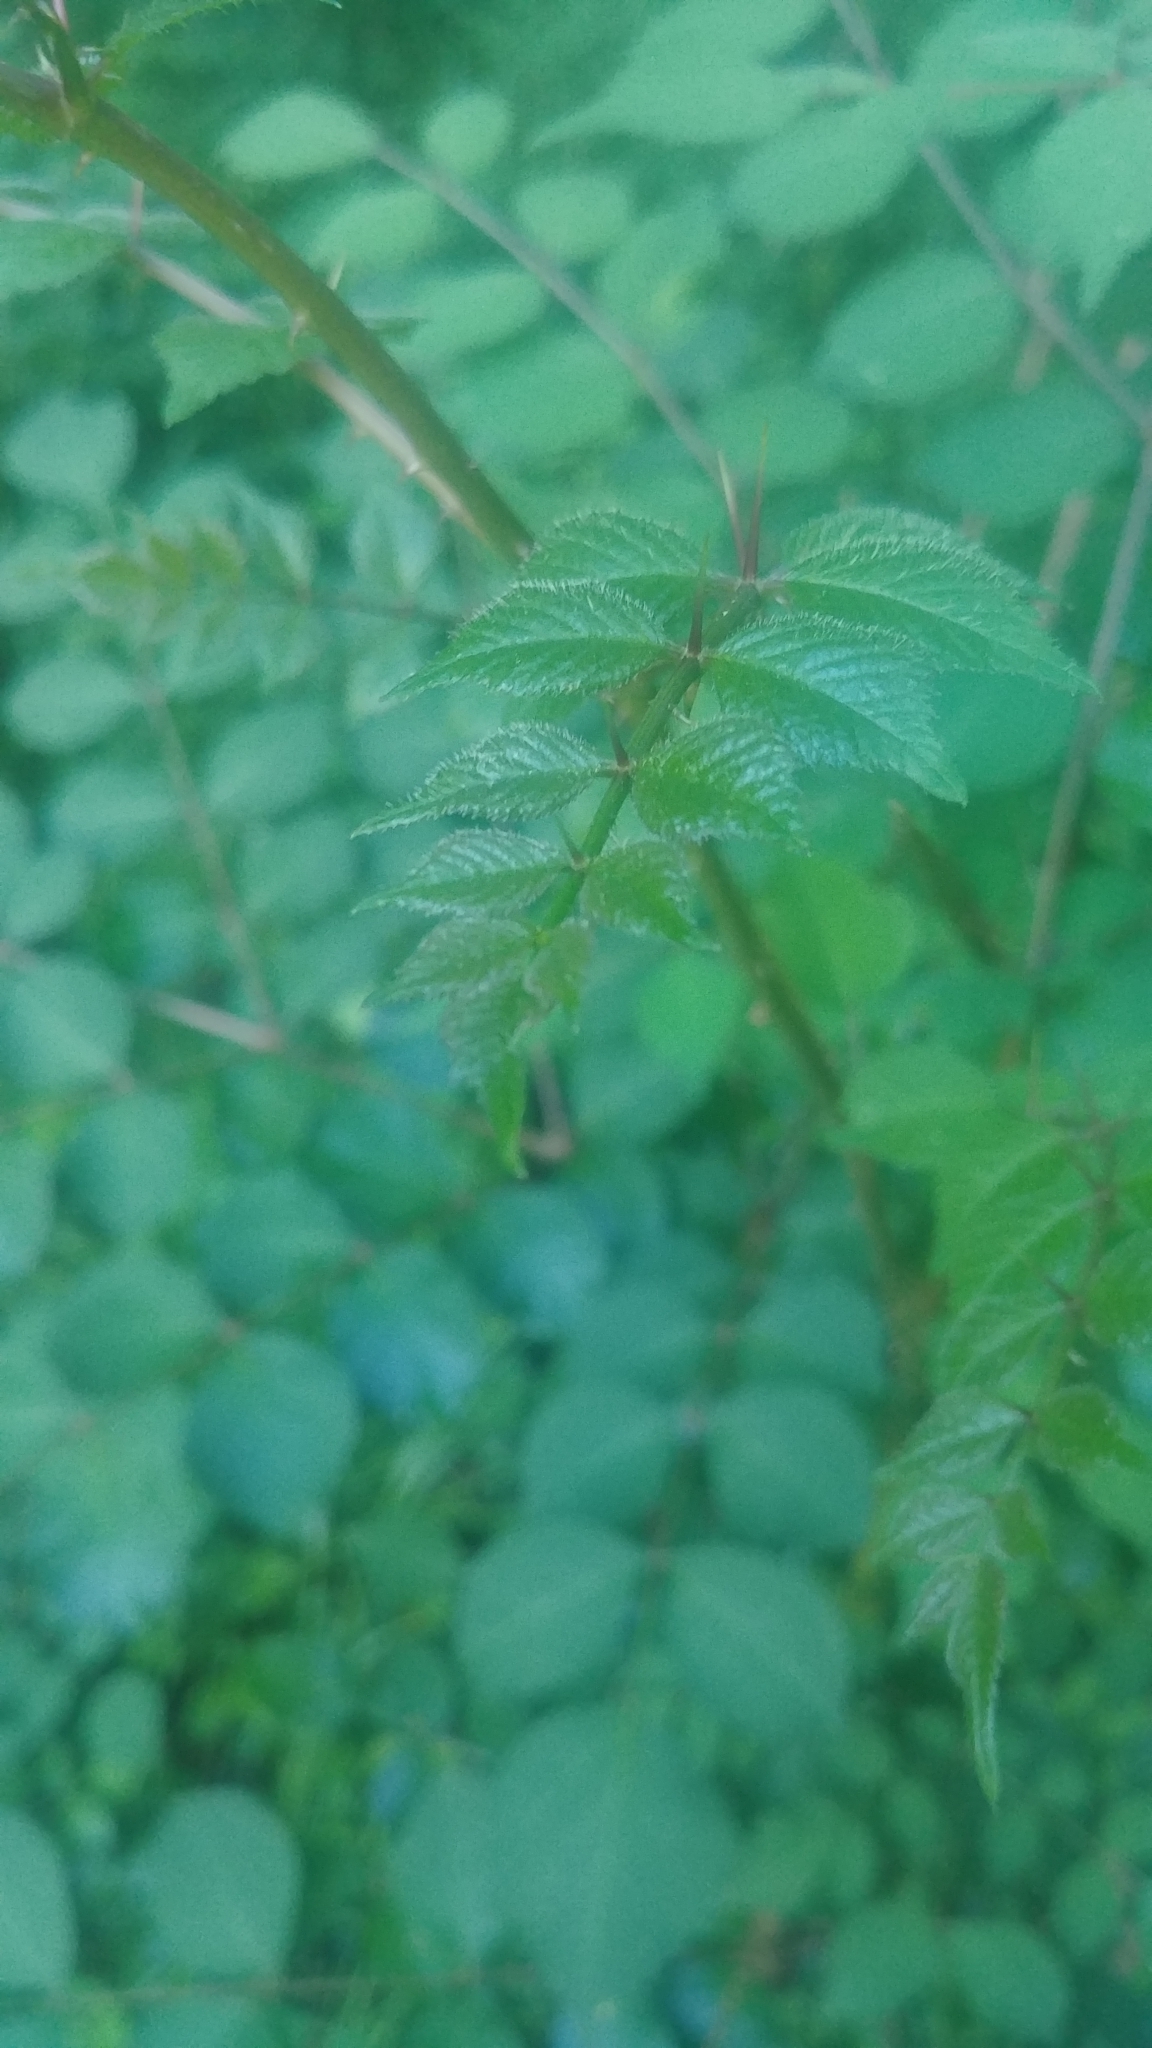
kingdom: Plantae
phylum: Tracheophyta
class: Magnoliopsida
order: Apiales
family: Araliaceae
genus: Aralia
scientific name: Aralia elata
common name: Japanese angelica-tree
